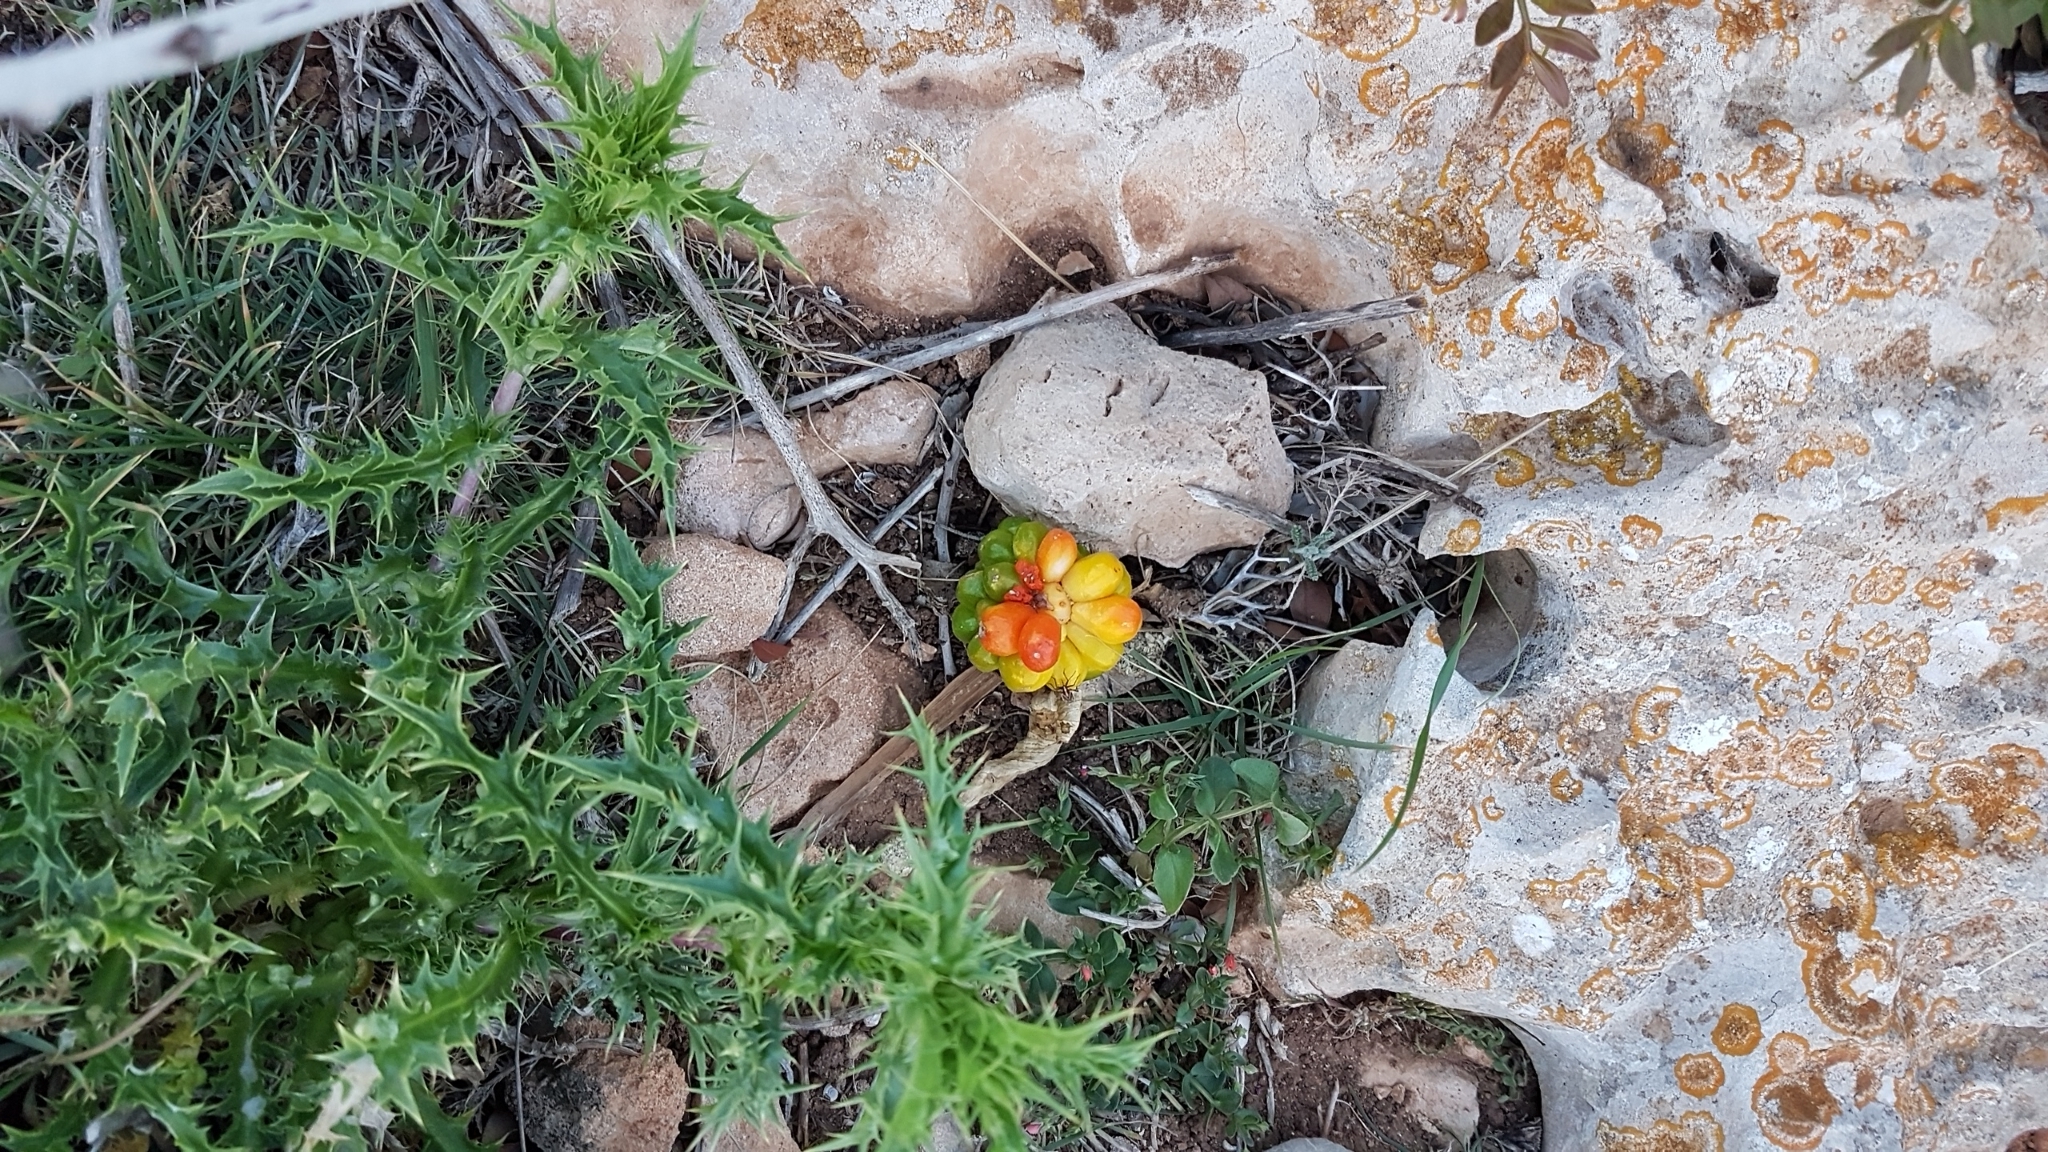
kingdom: Plantae
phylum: Tracheophyta
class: Liliopsida
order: Alismatales
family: Araceae
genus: Arum
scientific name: Arum pictum
